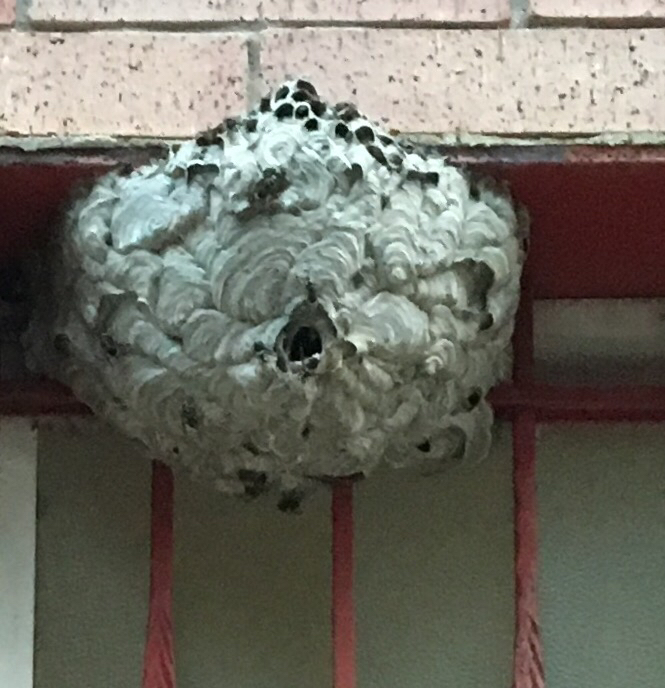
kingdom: Animalia
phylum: Arthropoda
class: Insecta
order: Hymenoptera
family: Vespidae
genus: Dolichovespula
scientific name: Dolichovespula maculata
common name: Bald-faced hornet
